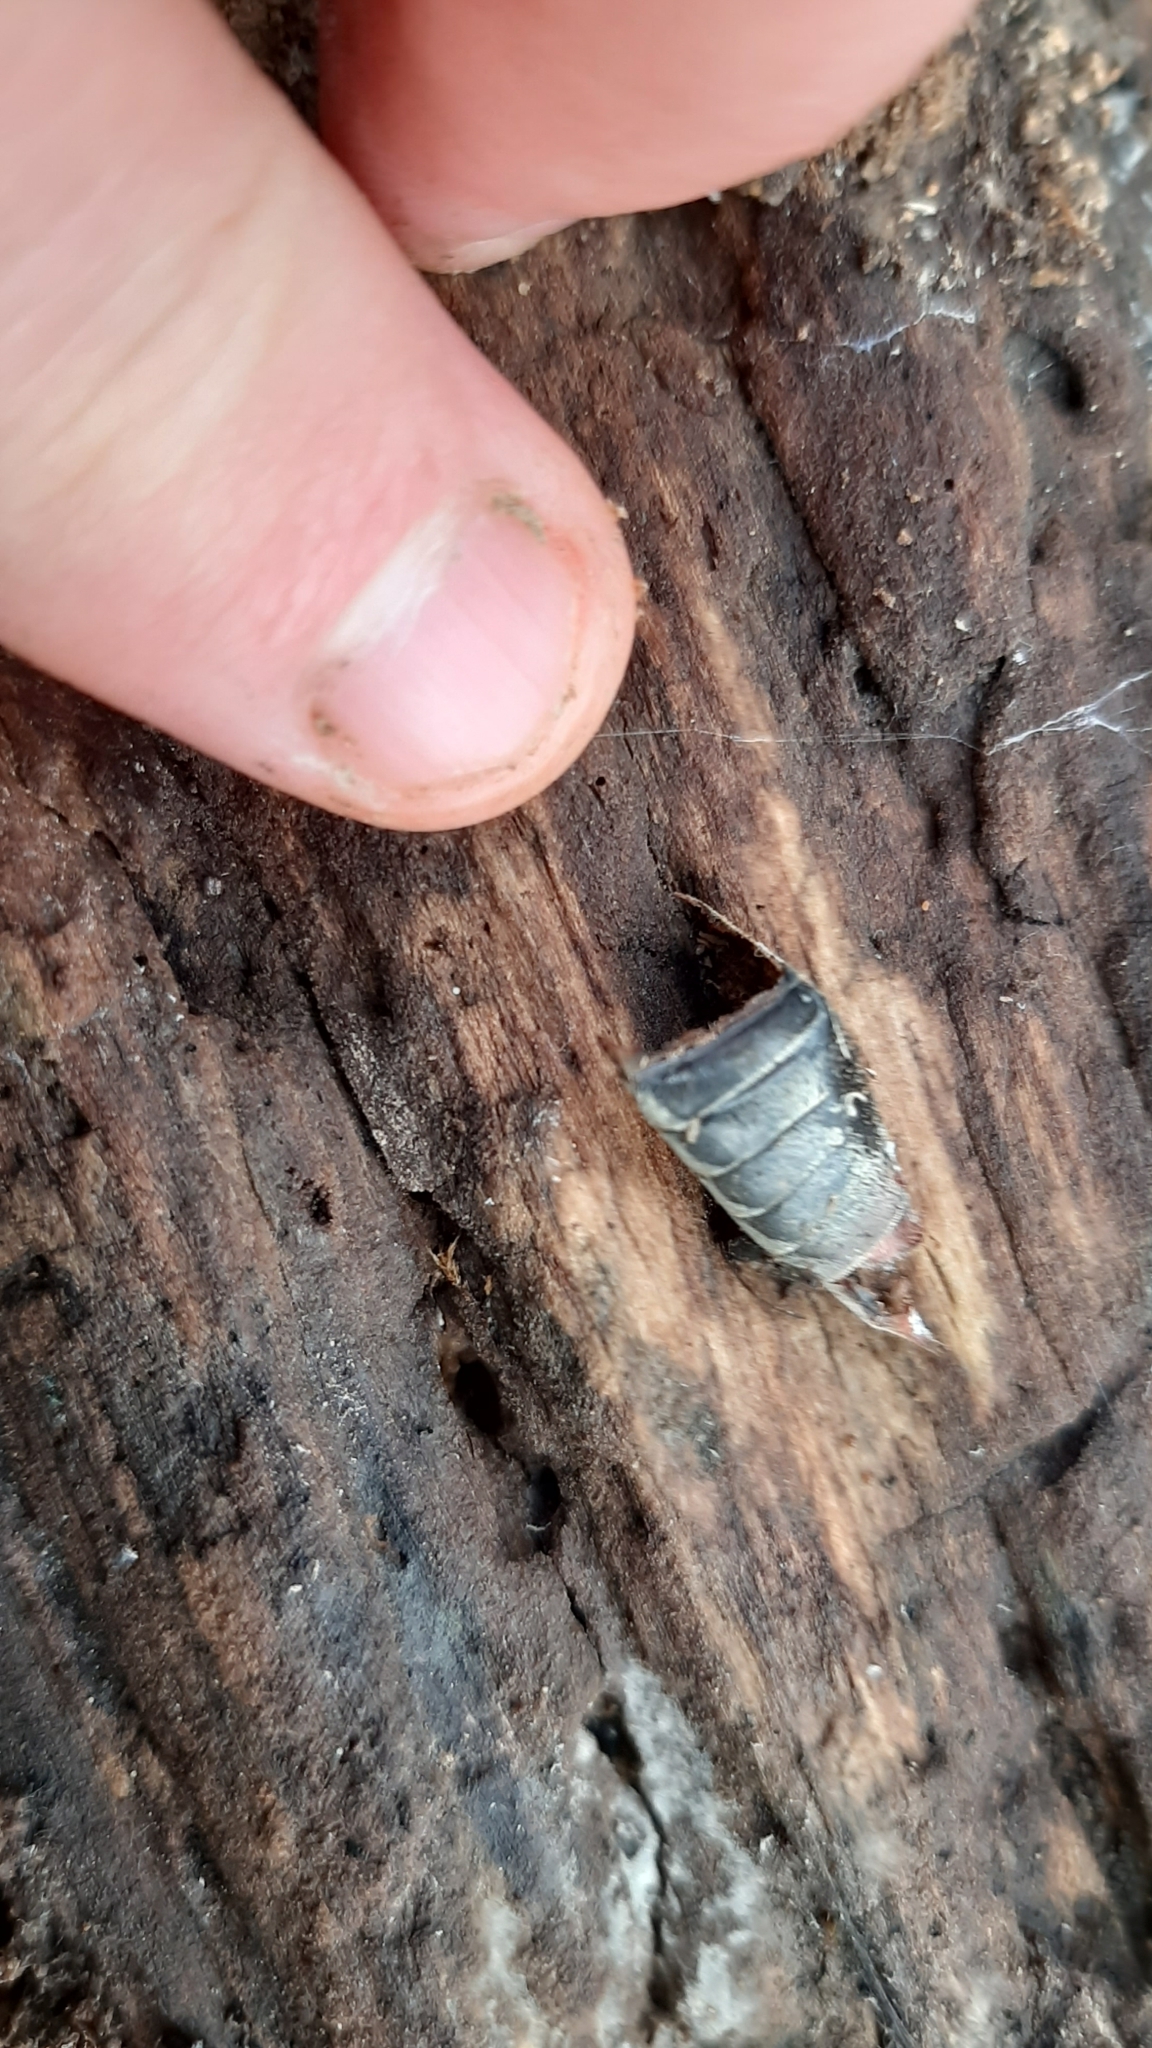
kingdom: Animalia
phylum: Arthropoda
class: Insecta
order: Coleoptera
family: Scarabaeidae
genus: Melolontha
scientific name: Melolontha melolontha
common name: Cockchafer maybeetle
